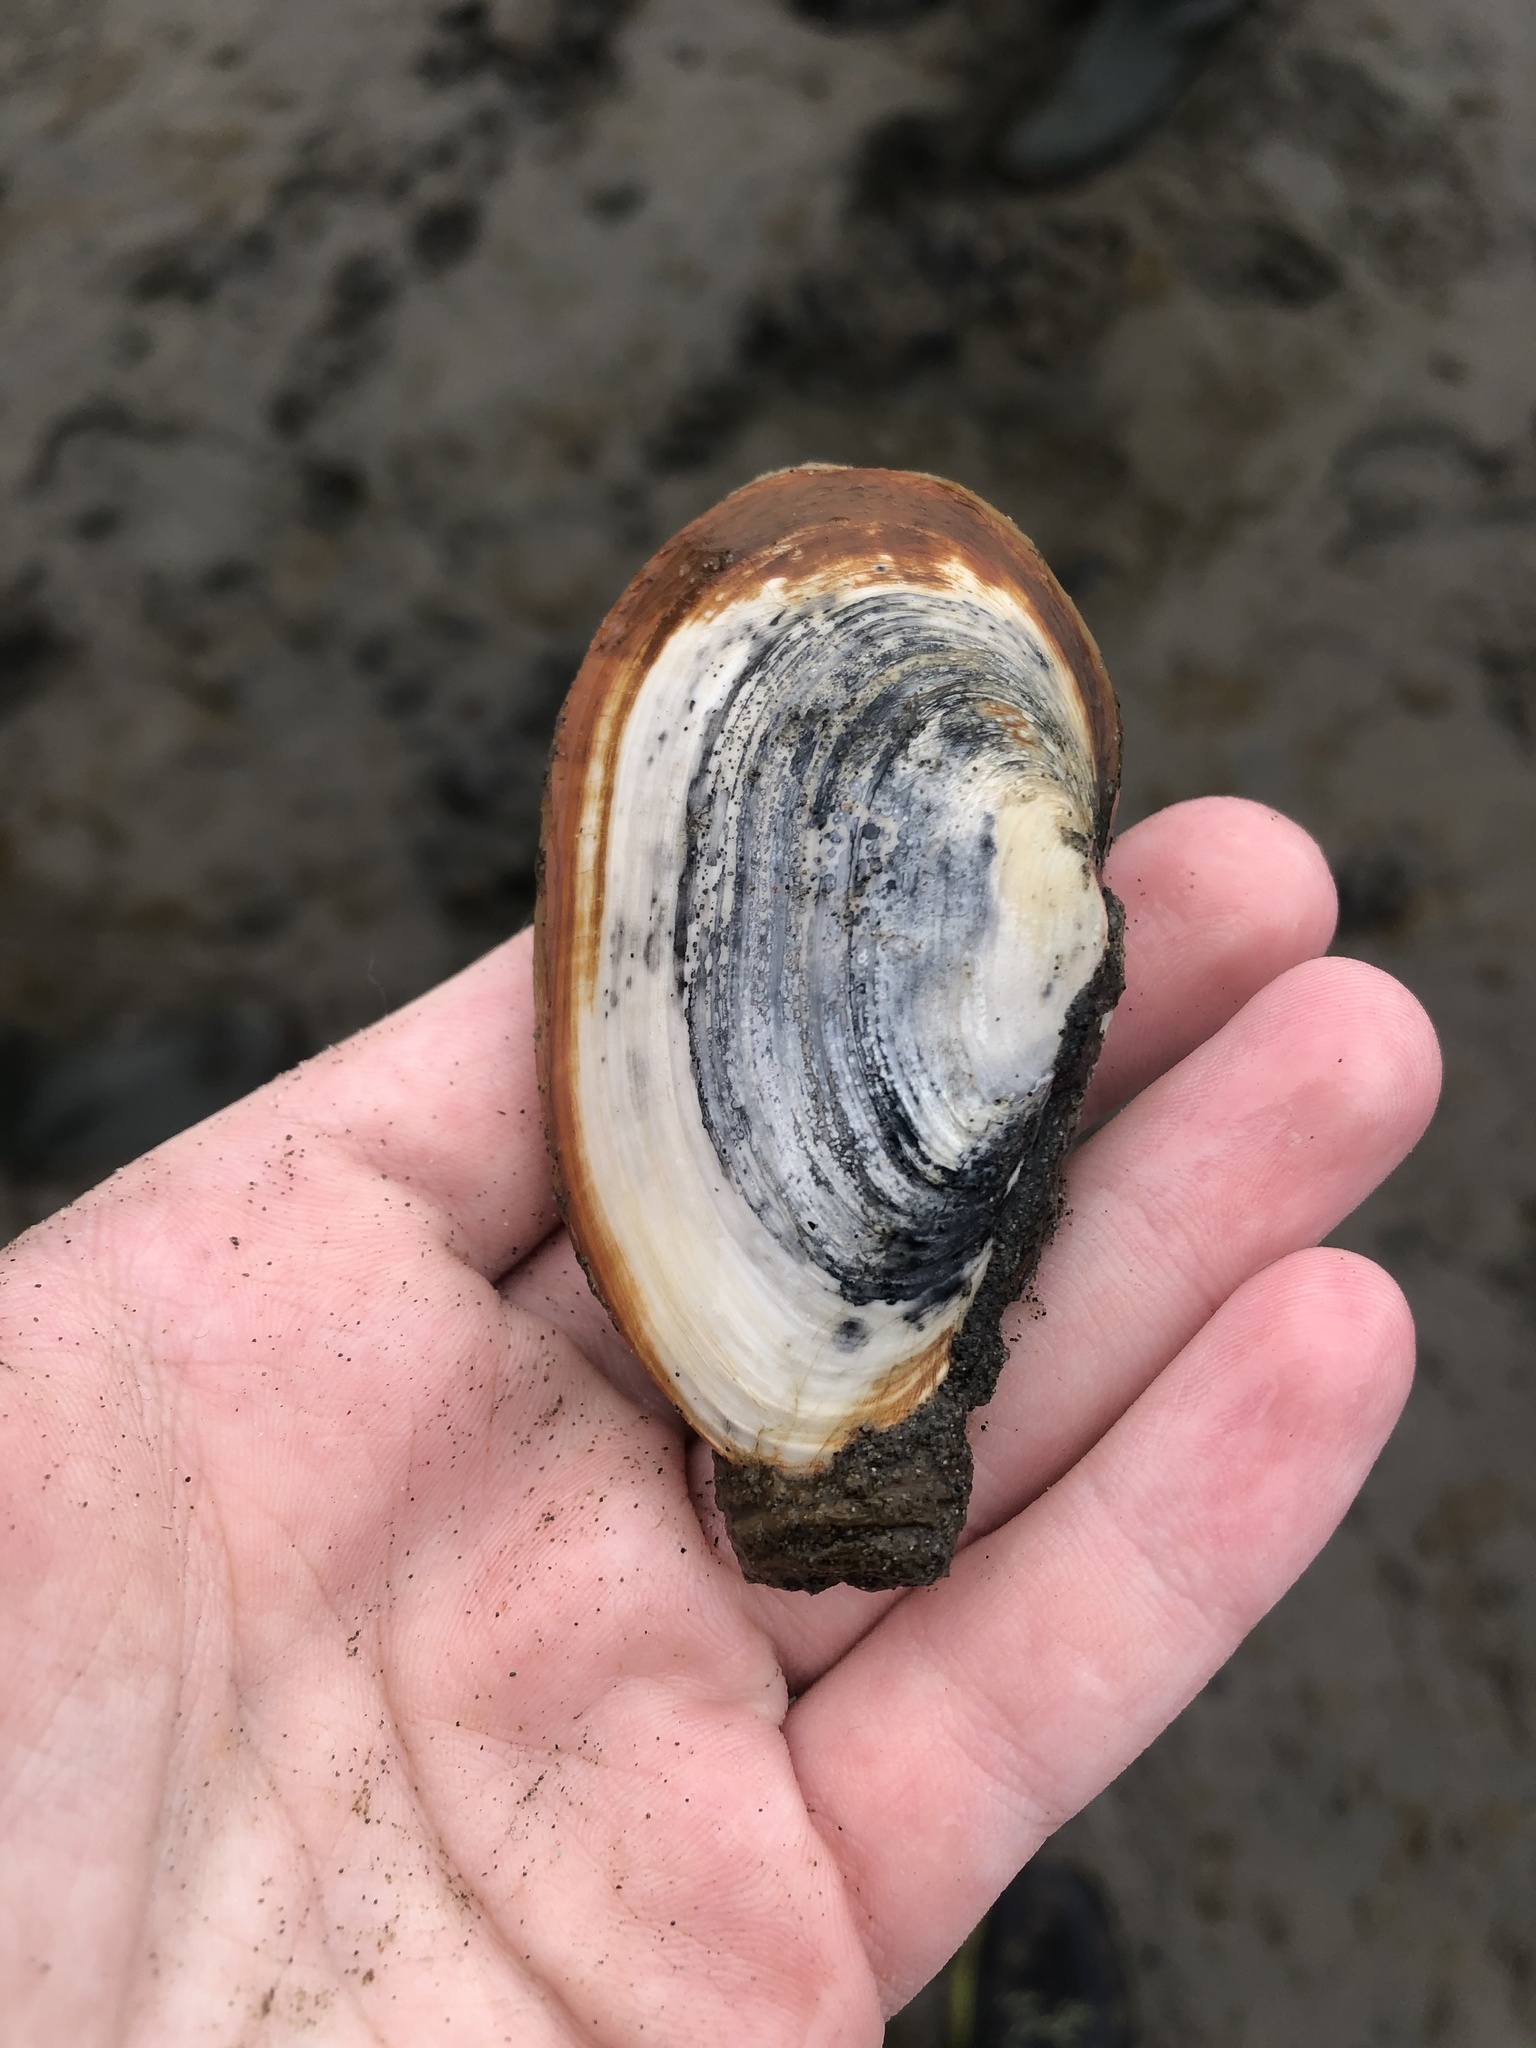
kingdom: Animalia
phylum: Mollusca
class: Bivalvia
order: Myida
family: Myidae
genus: Mya
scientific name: Mya arenaria
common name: Soft-shelled clam
